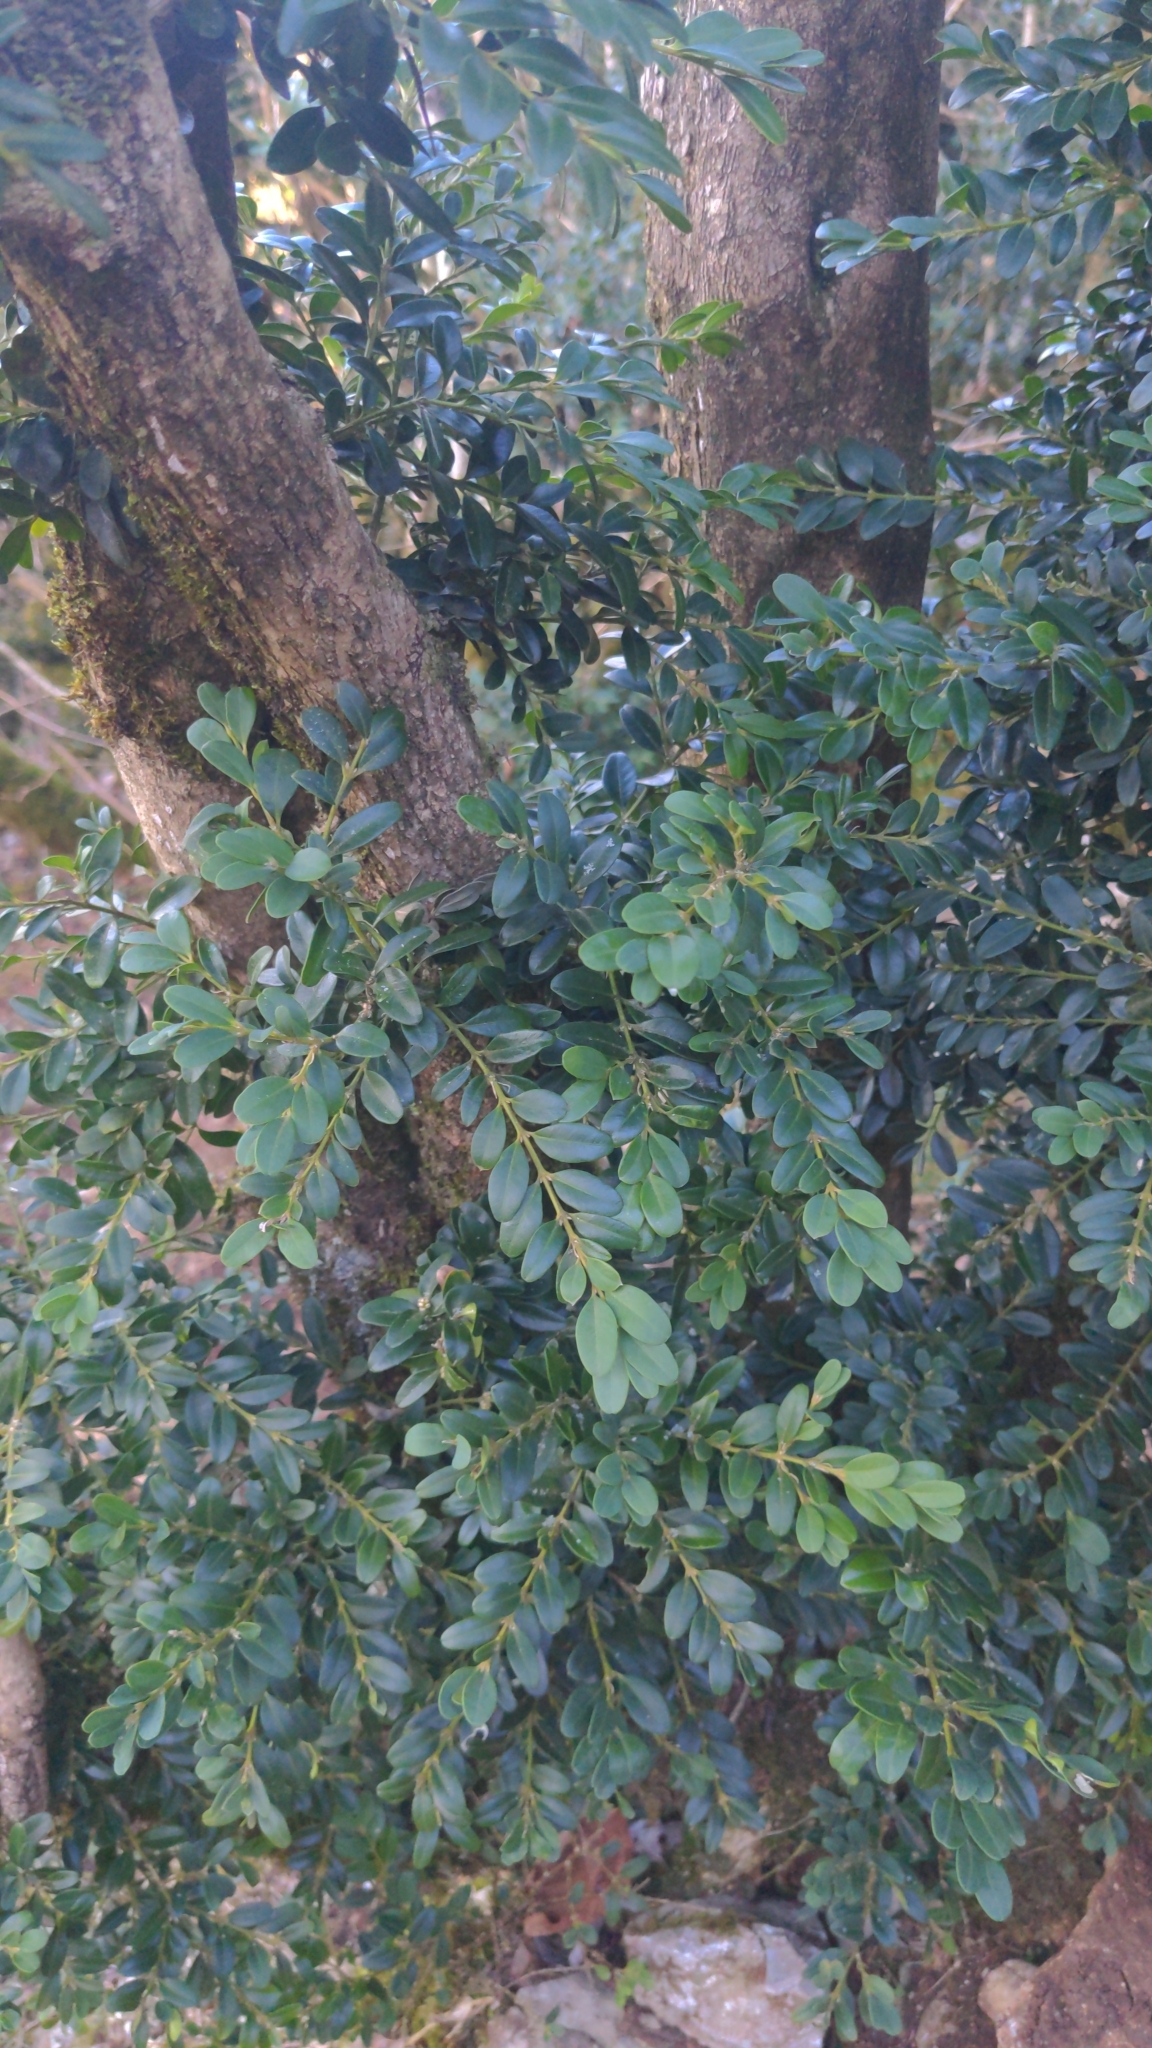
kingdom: Plantae
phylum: Tracheophyta
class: Magnoliopsida
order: Buxales
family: Buxaceae
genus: Buxus
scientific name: Buxus sempervirens
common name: Box
